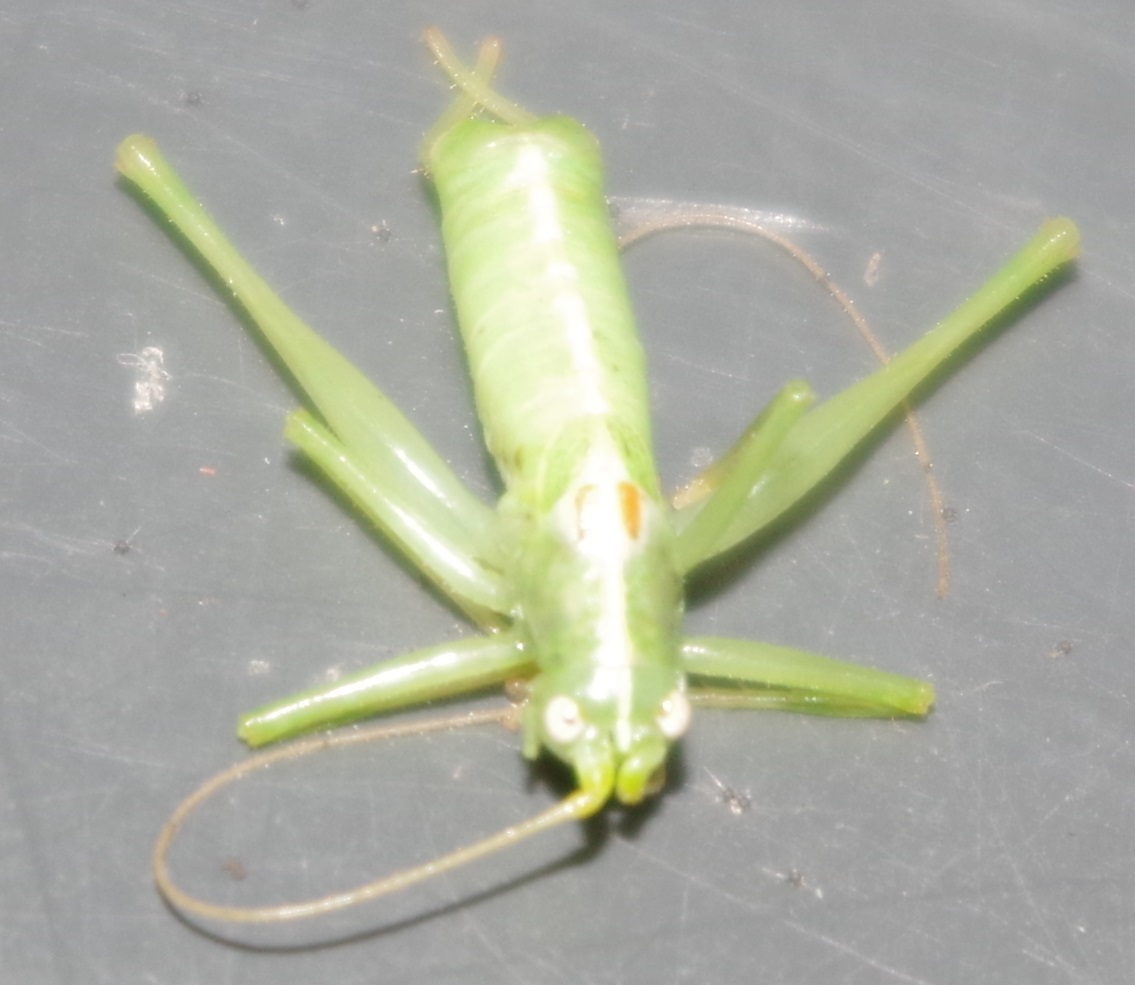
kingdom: Animalia
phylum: Arthropoda
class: Insecta
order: Orthoptera
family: Tettigoniidae
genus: Meconema
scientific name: Meconema meridionale
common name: Southern oak bush-cricket
